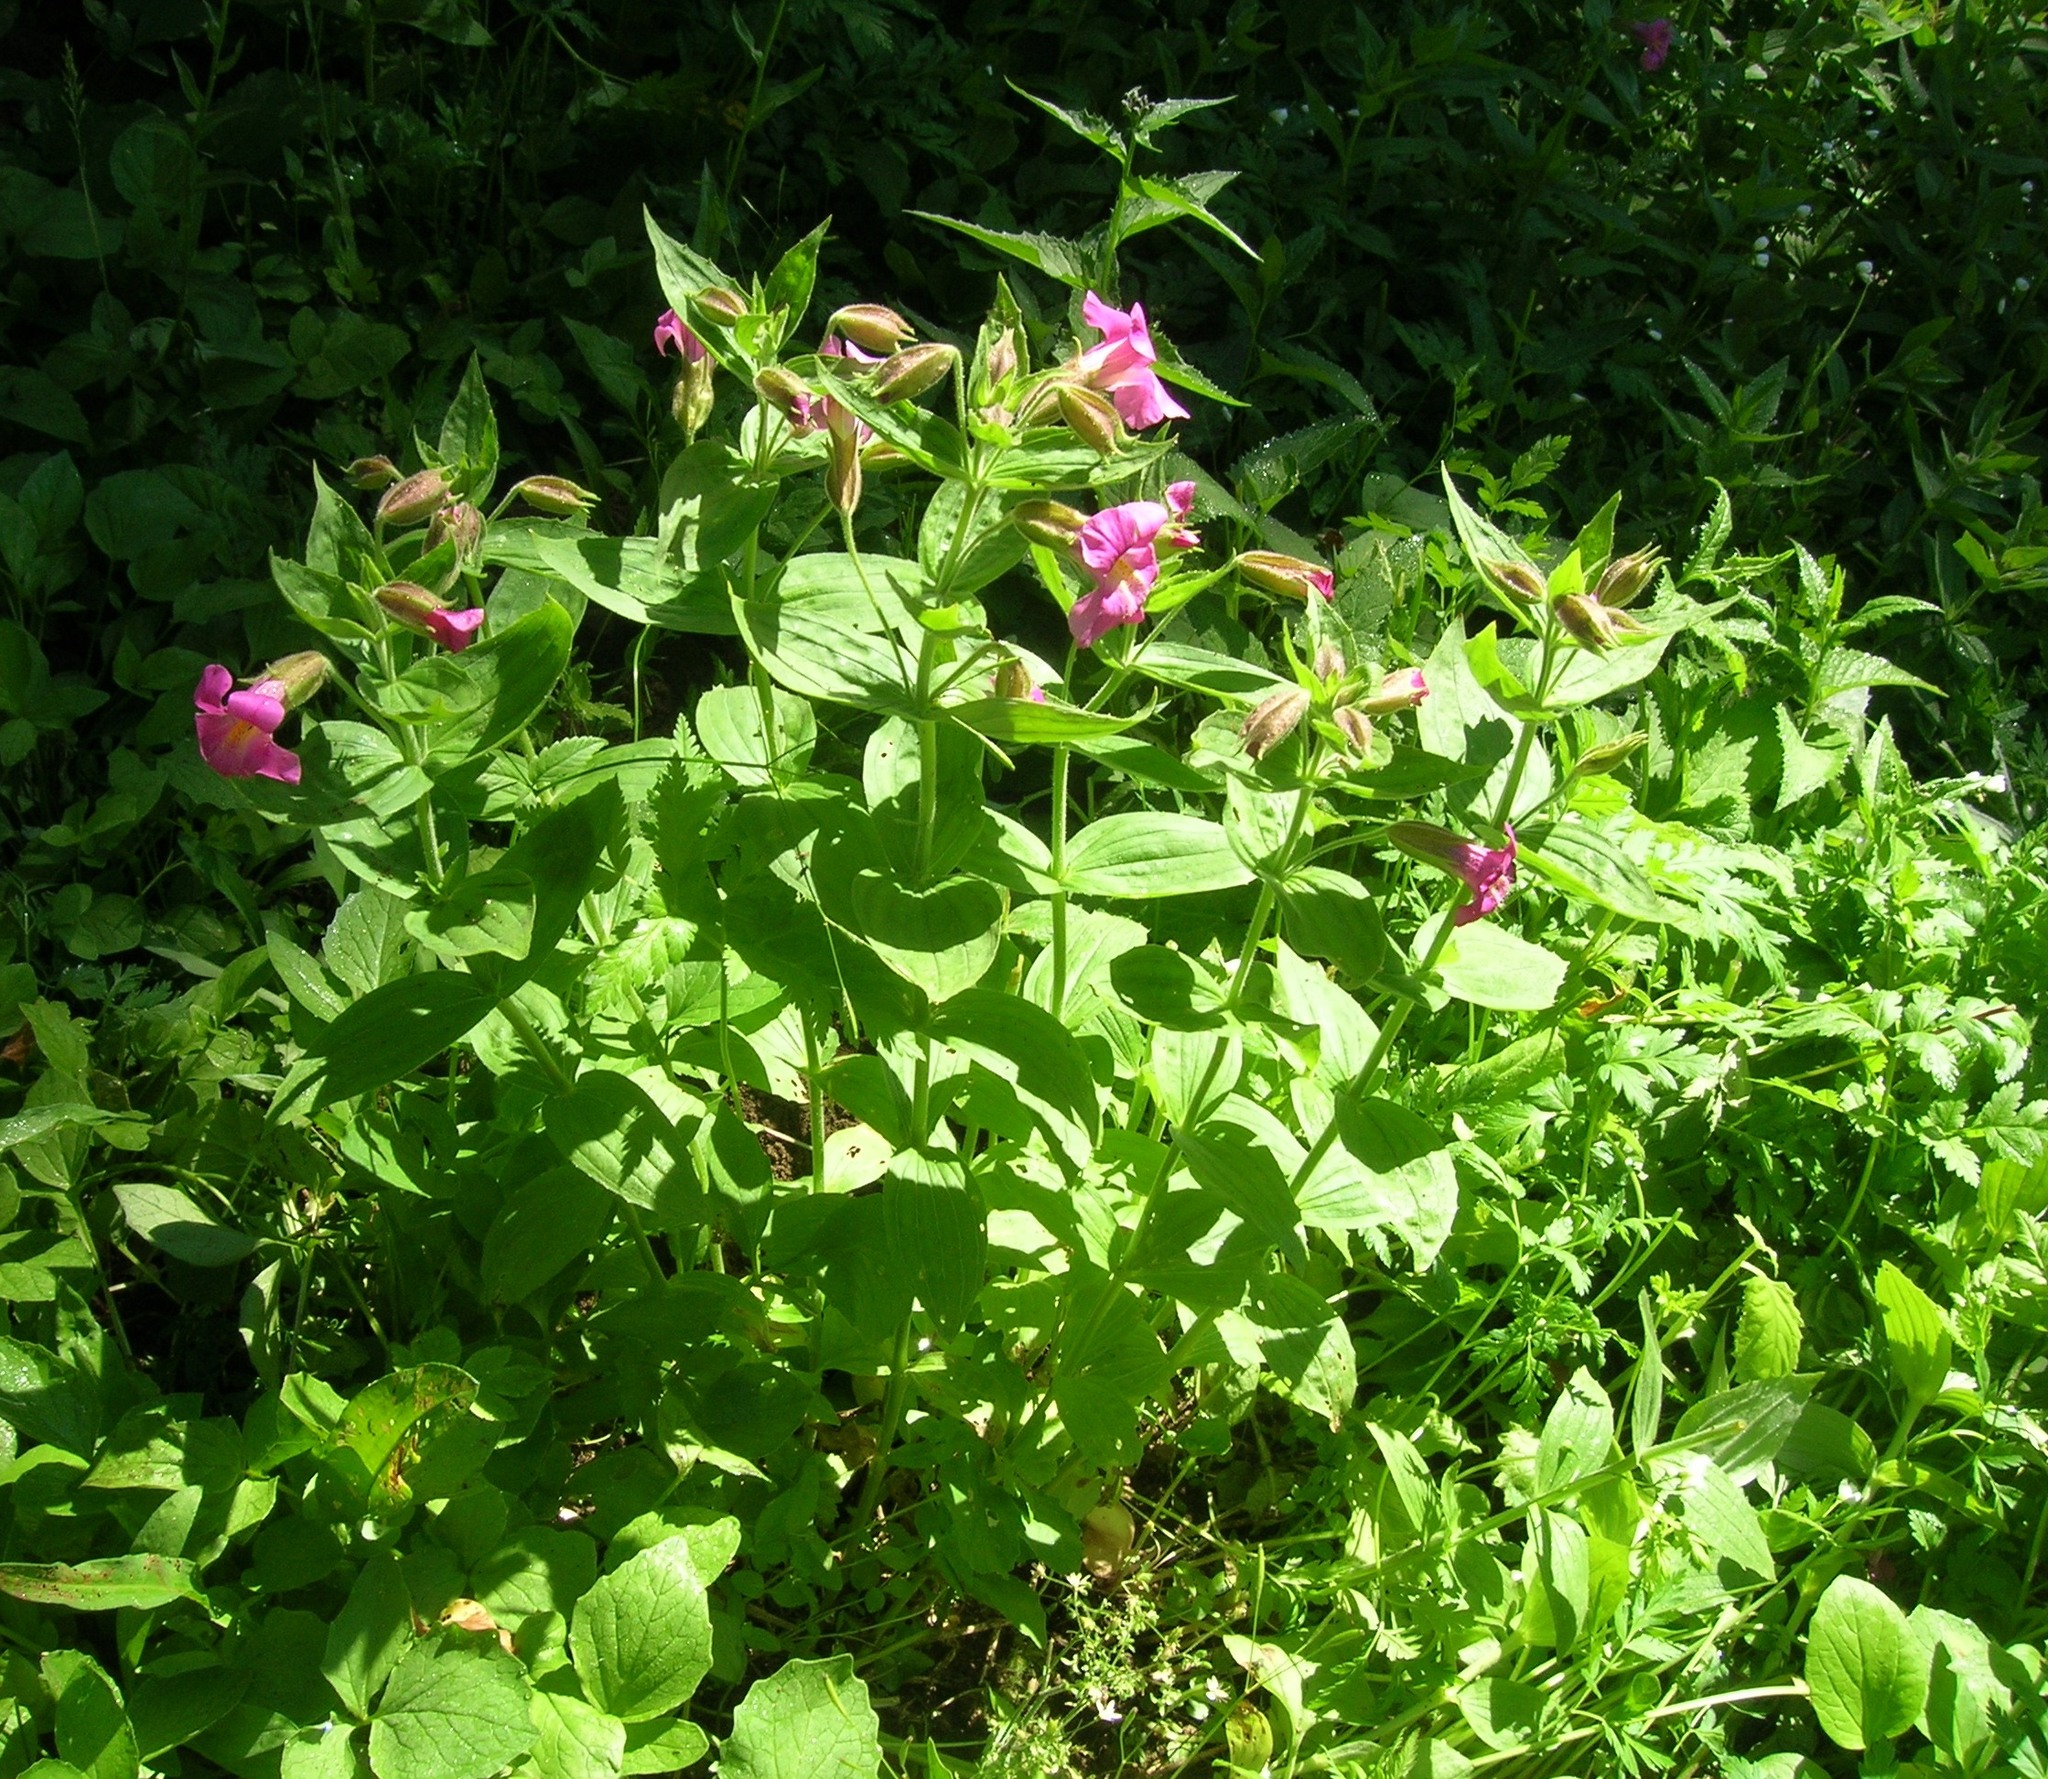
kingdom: Plantae
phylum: Tracheophyta
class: Magnoliopsida
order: Lamiales
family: Phrymaceae
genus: Erythranthe
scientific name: Erythranthe lewisii
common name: Lewis's monkey-flower
